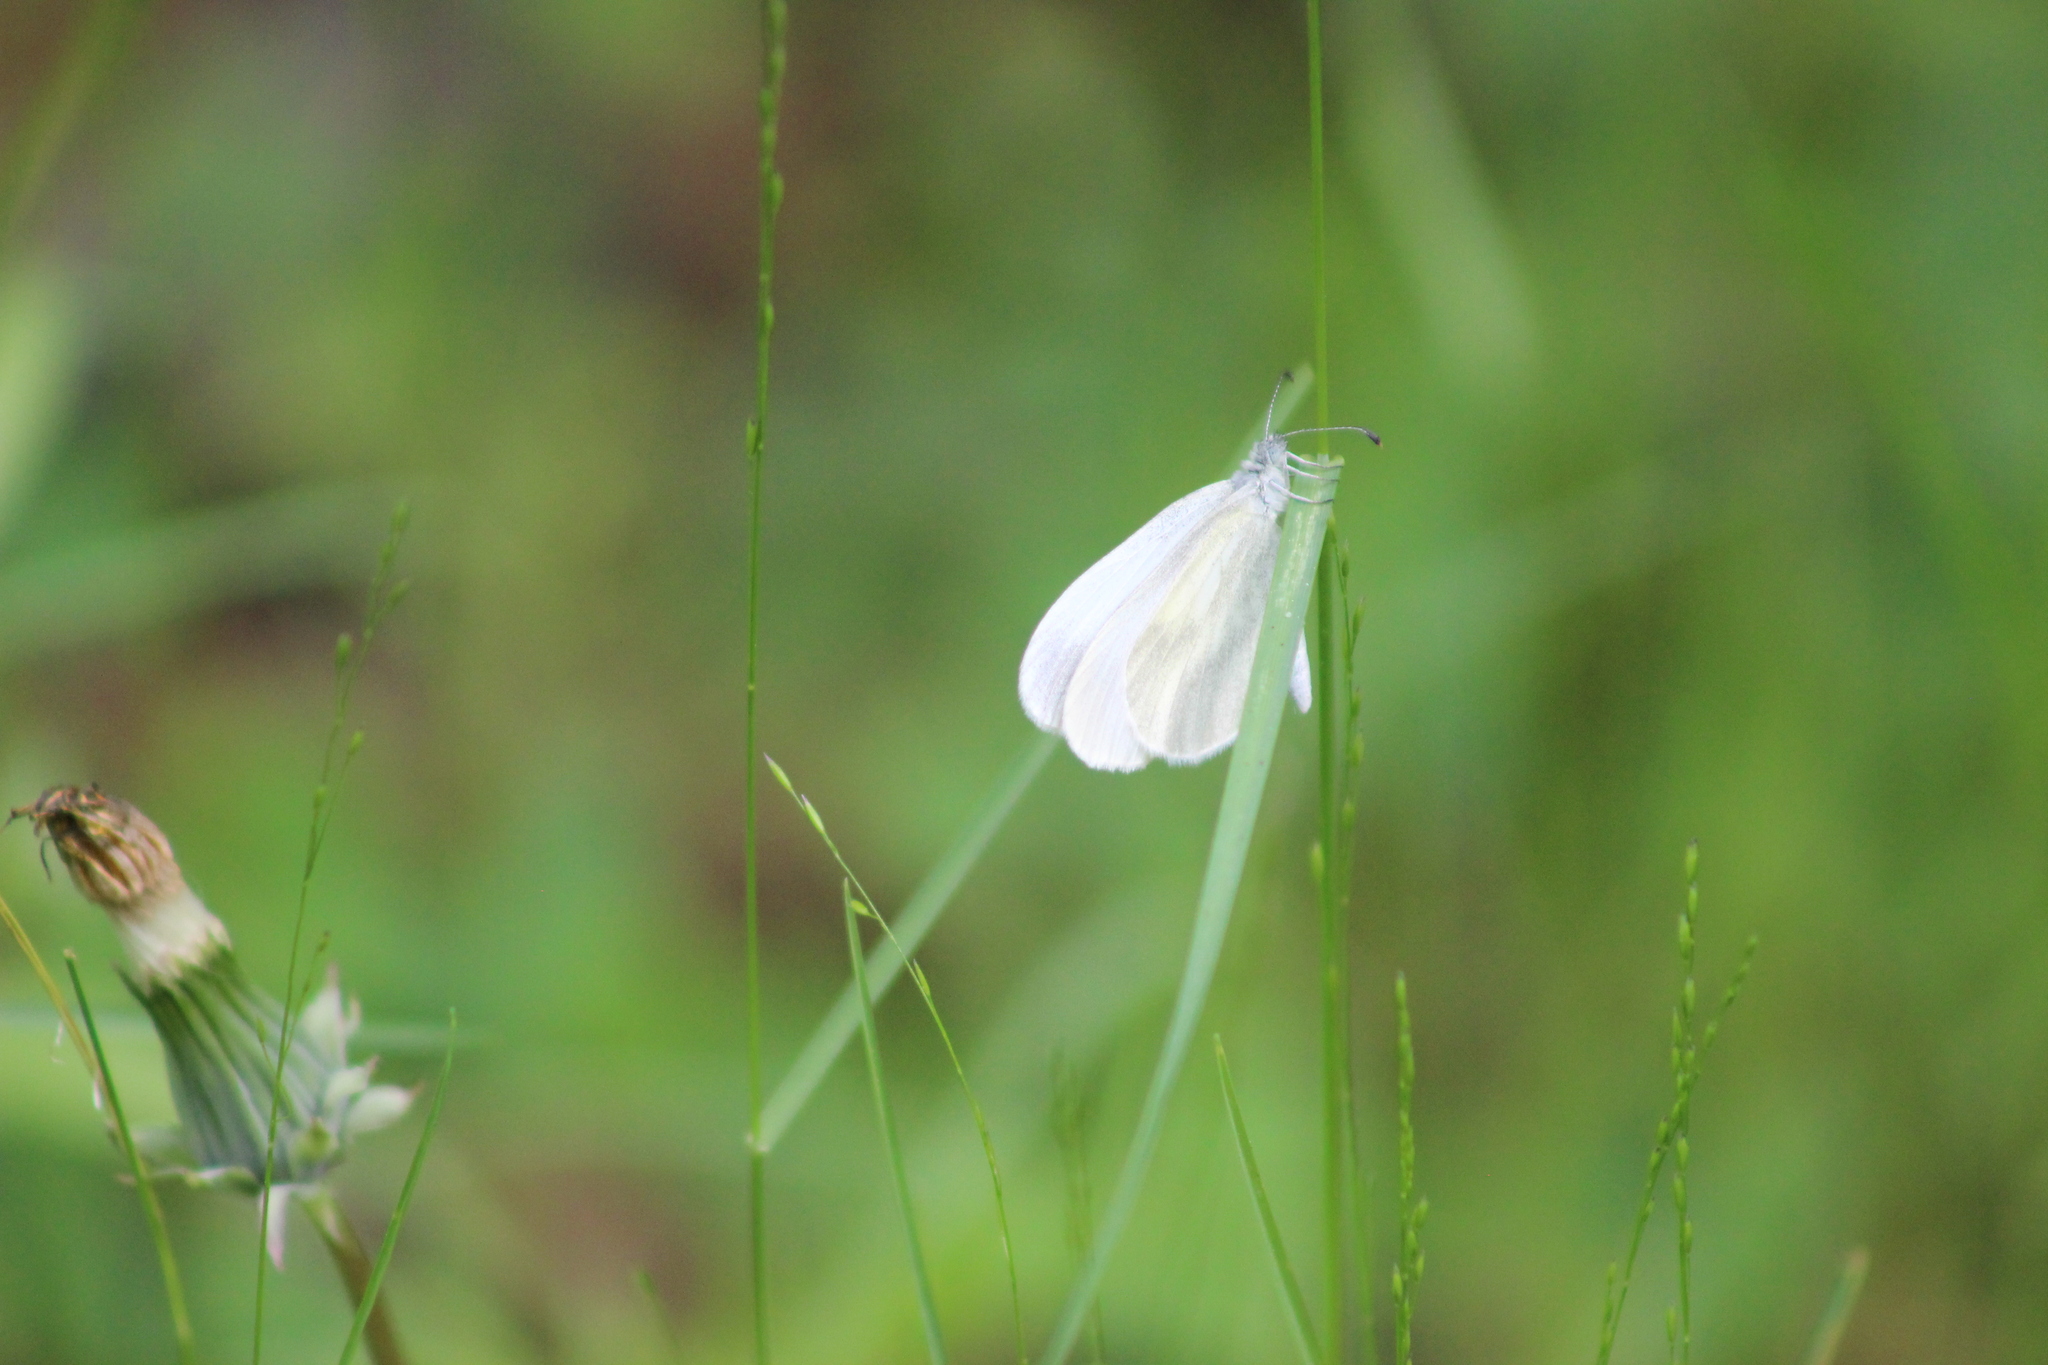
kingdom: Animalia
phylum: Arthropoda
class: Insecta
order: Lepidoptera
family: Pieridae
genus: Leptidea
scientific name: Leptidea sinapis
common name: Wood white
